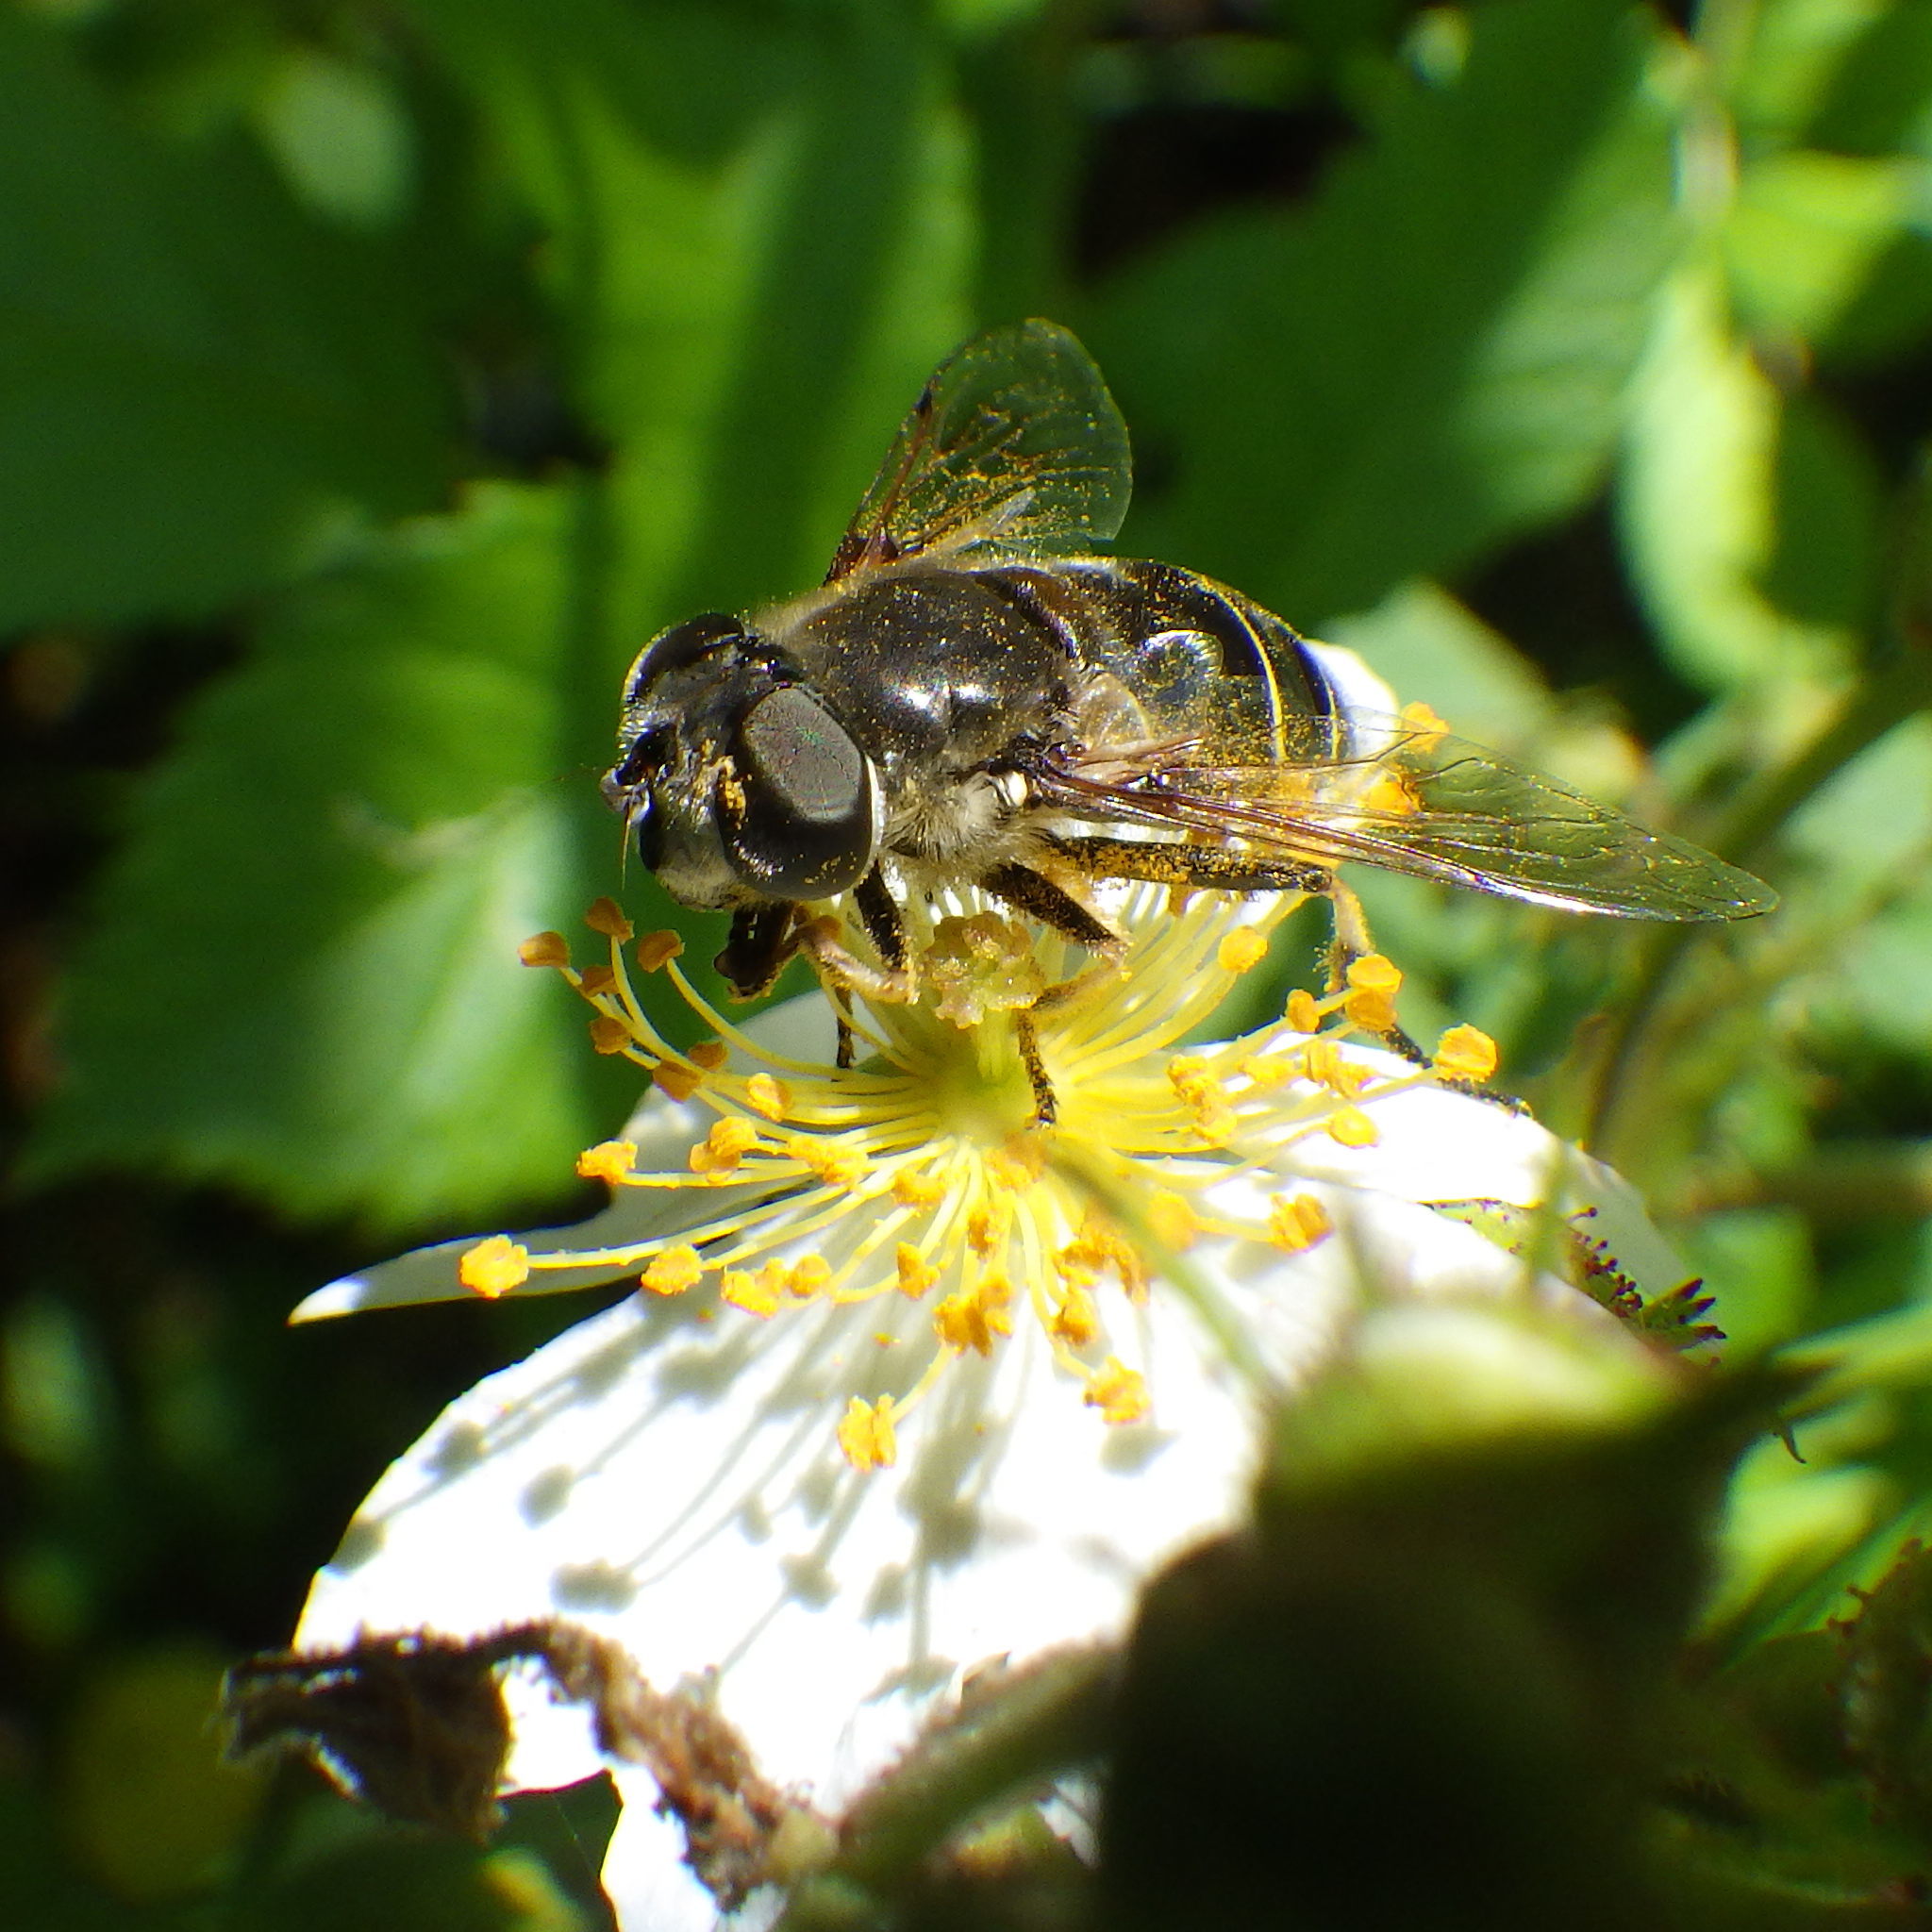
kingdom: Animalia
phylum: Arthropoda
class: Insecta
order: Diptera
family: Syrphidae
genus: Eristalis
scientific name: Eristalis dimidiata
